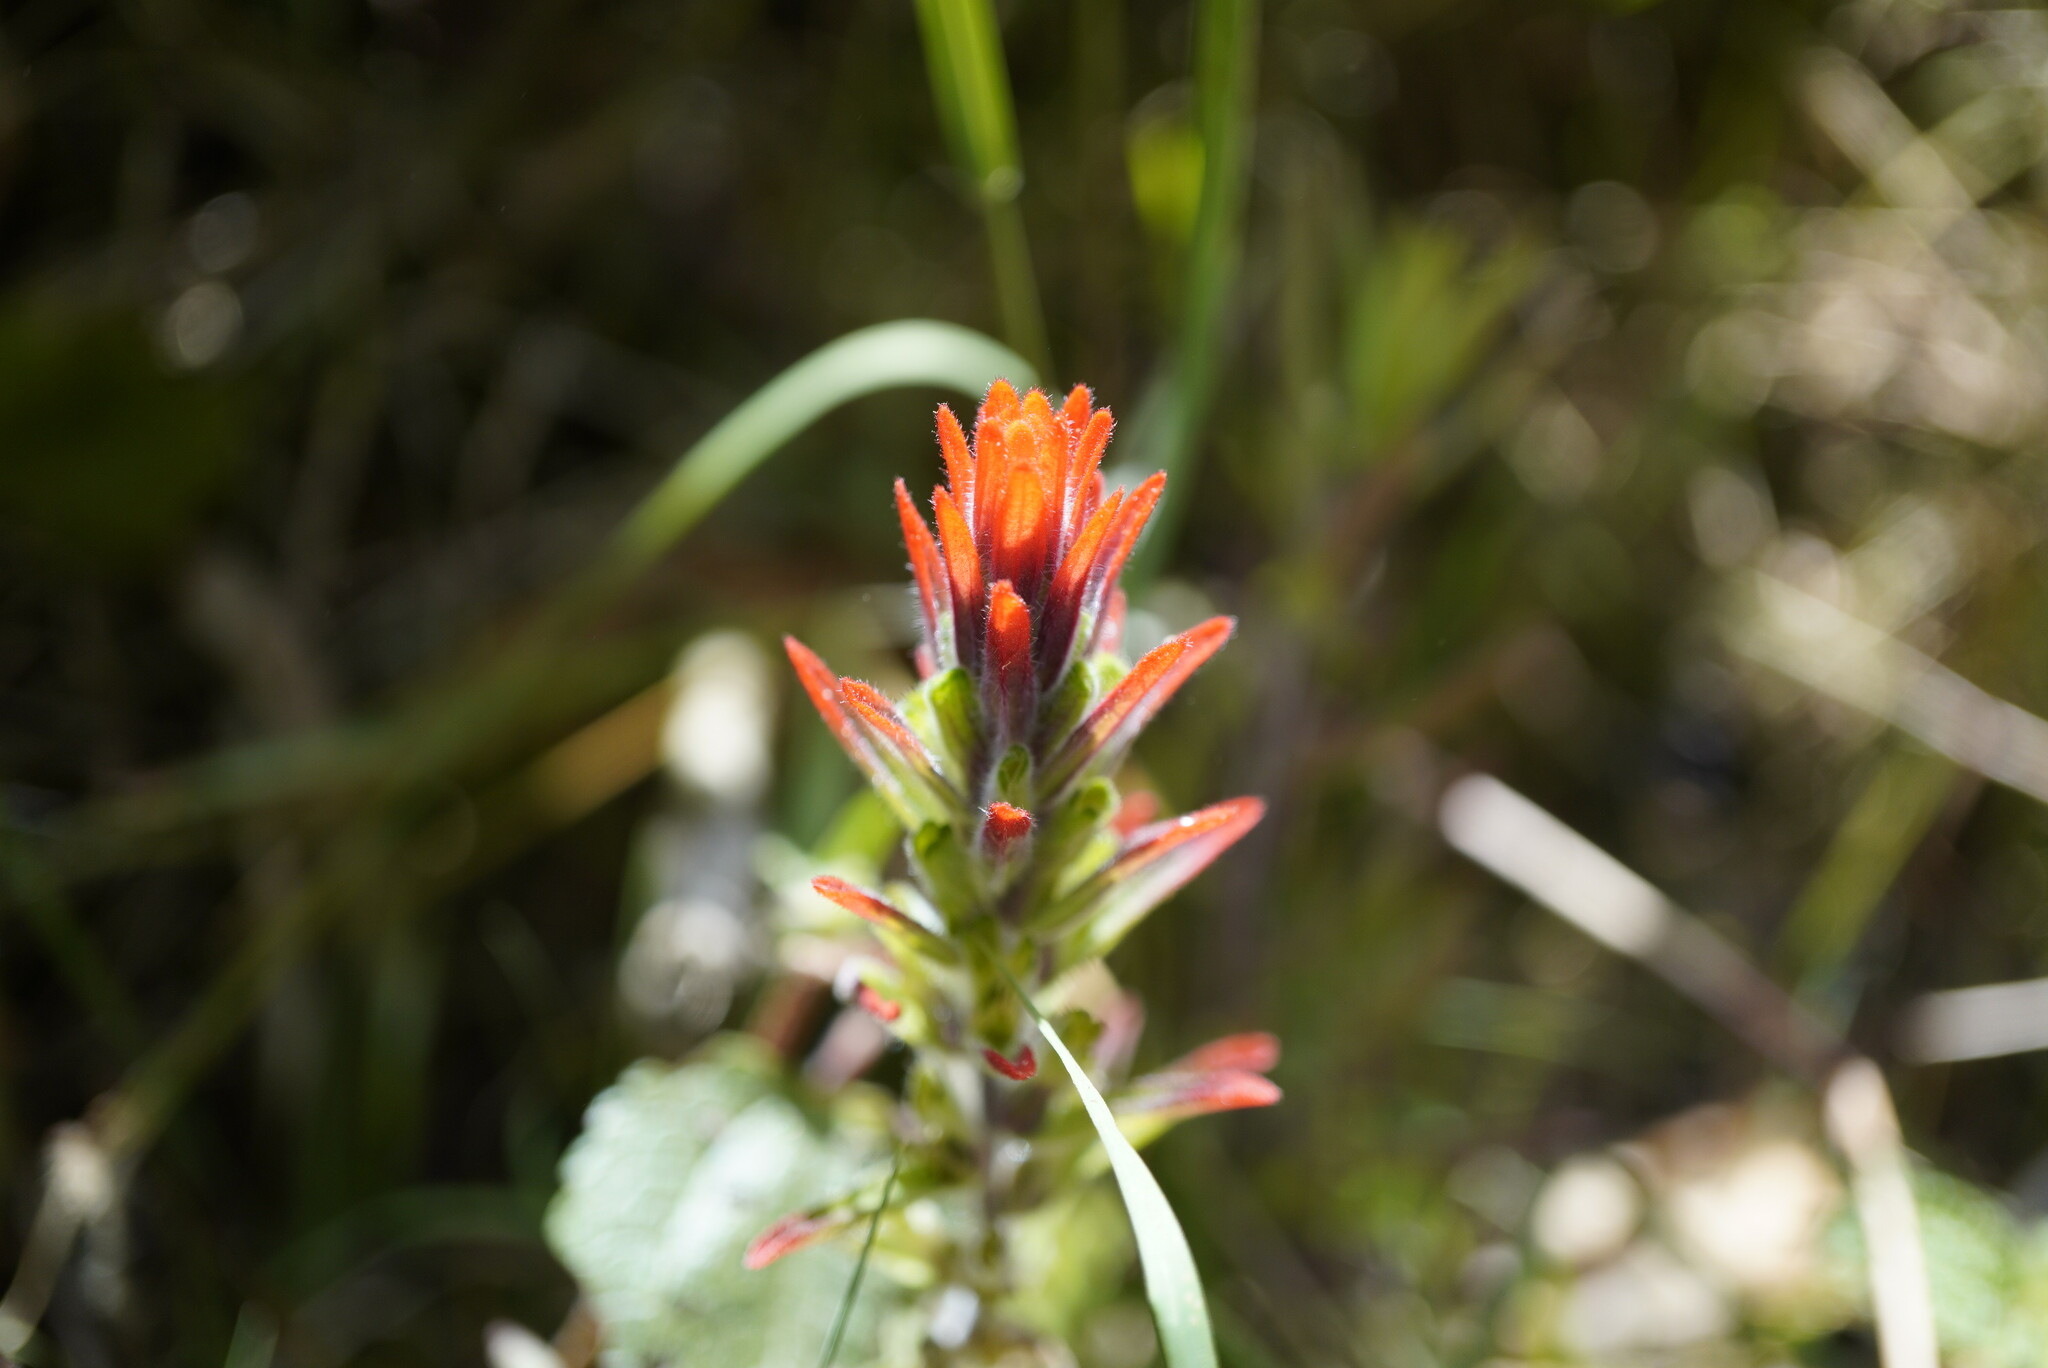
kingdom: Plantae
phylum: Tracheophyta
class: Magnoliopsida
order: Lamiales
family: Orobanchaceae
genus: Castilleja
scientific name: Castilleja arvensis
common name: Indian paintbrush
